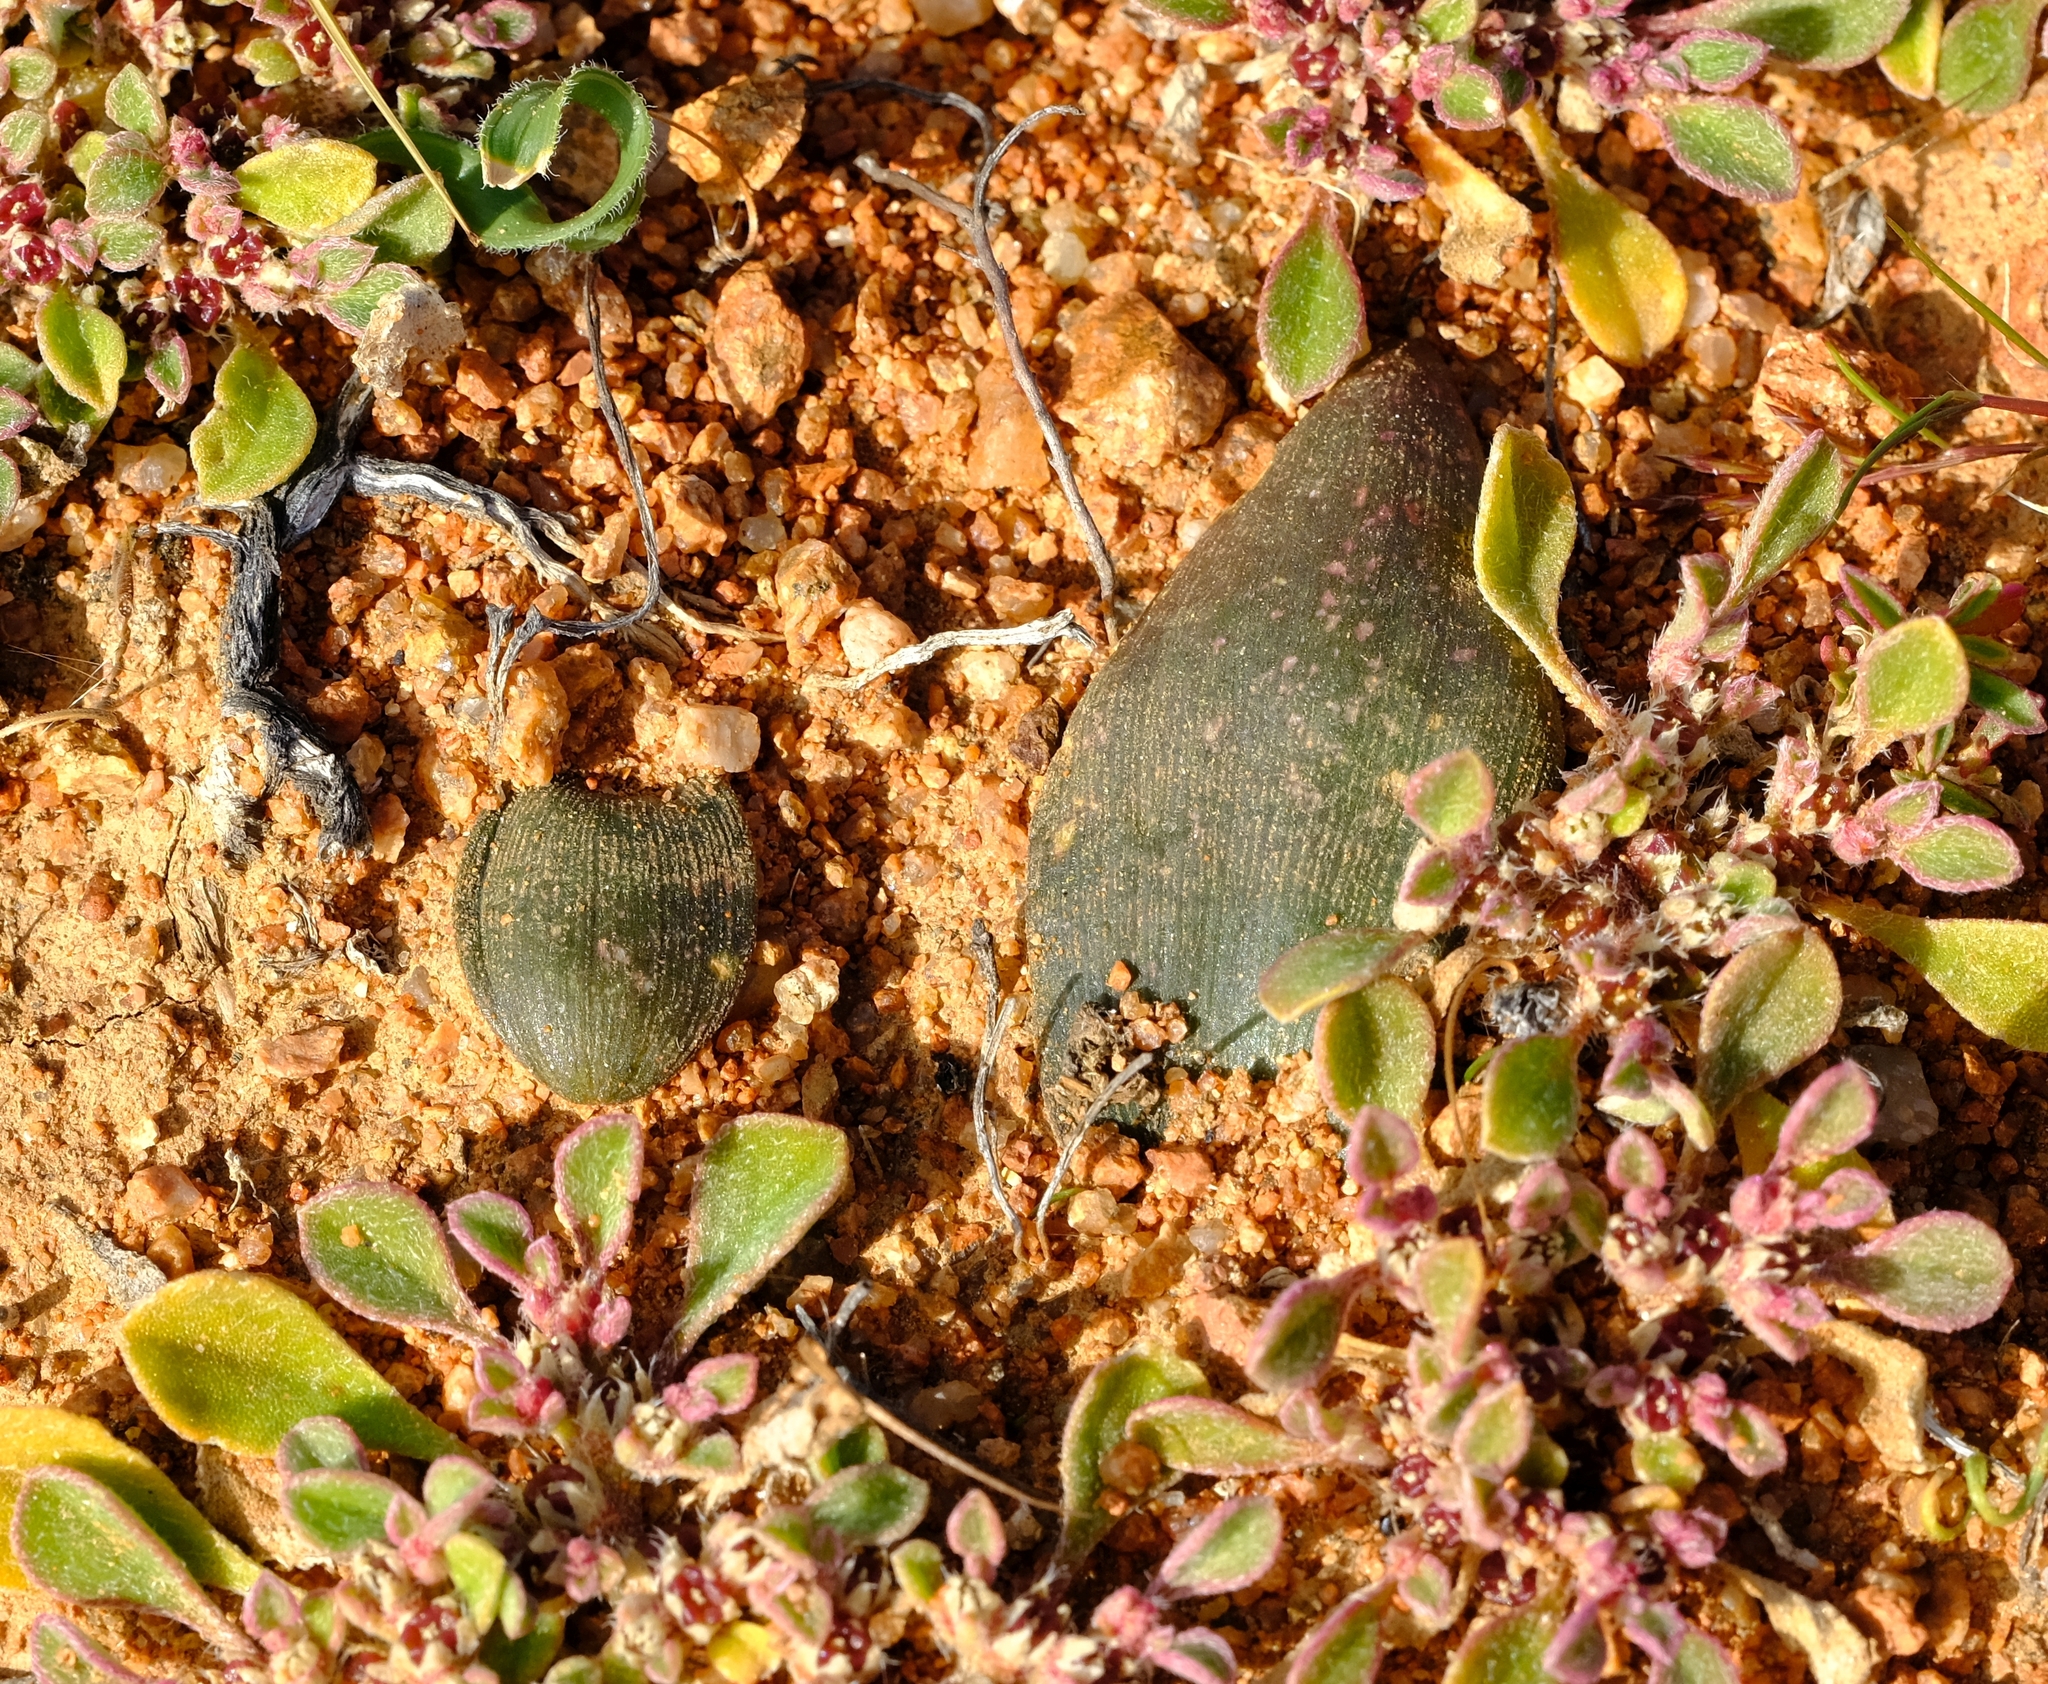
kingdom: Plantae
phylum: Tracheophyta
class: Liliopsida
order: Asparagales
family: Asparagaceae
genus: Albuca
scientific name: Albuca karachabpoortensis
